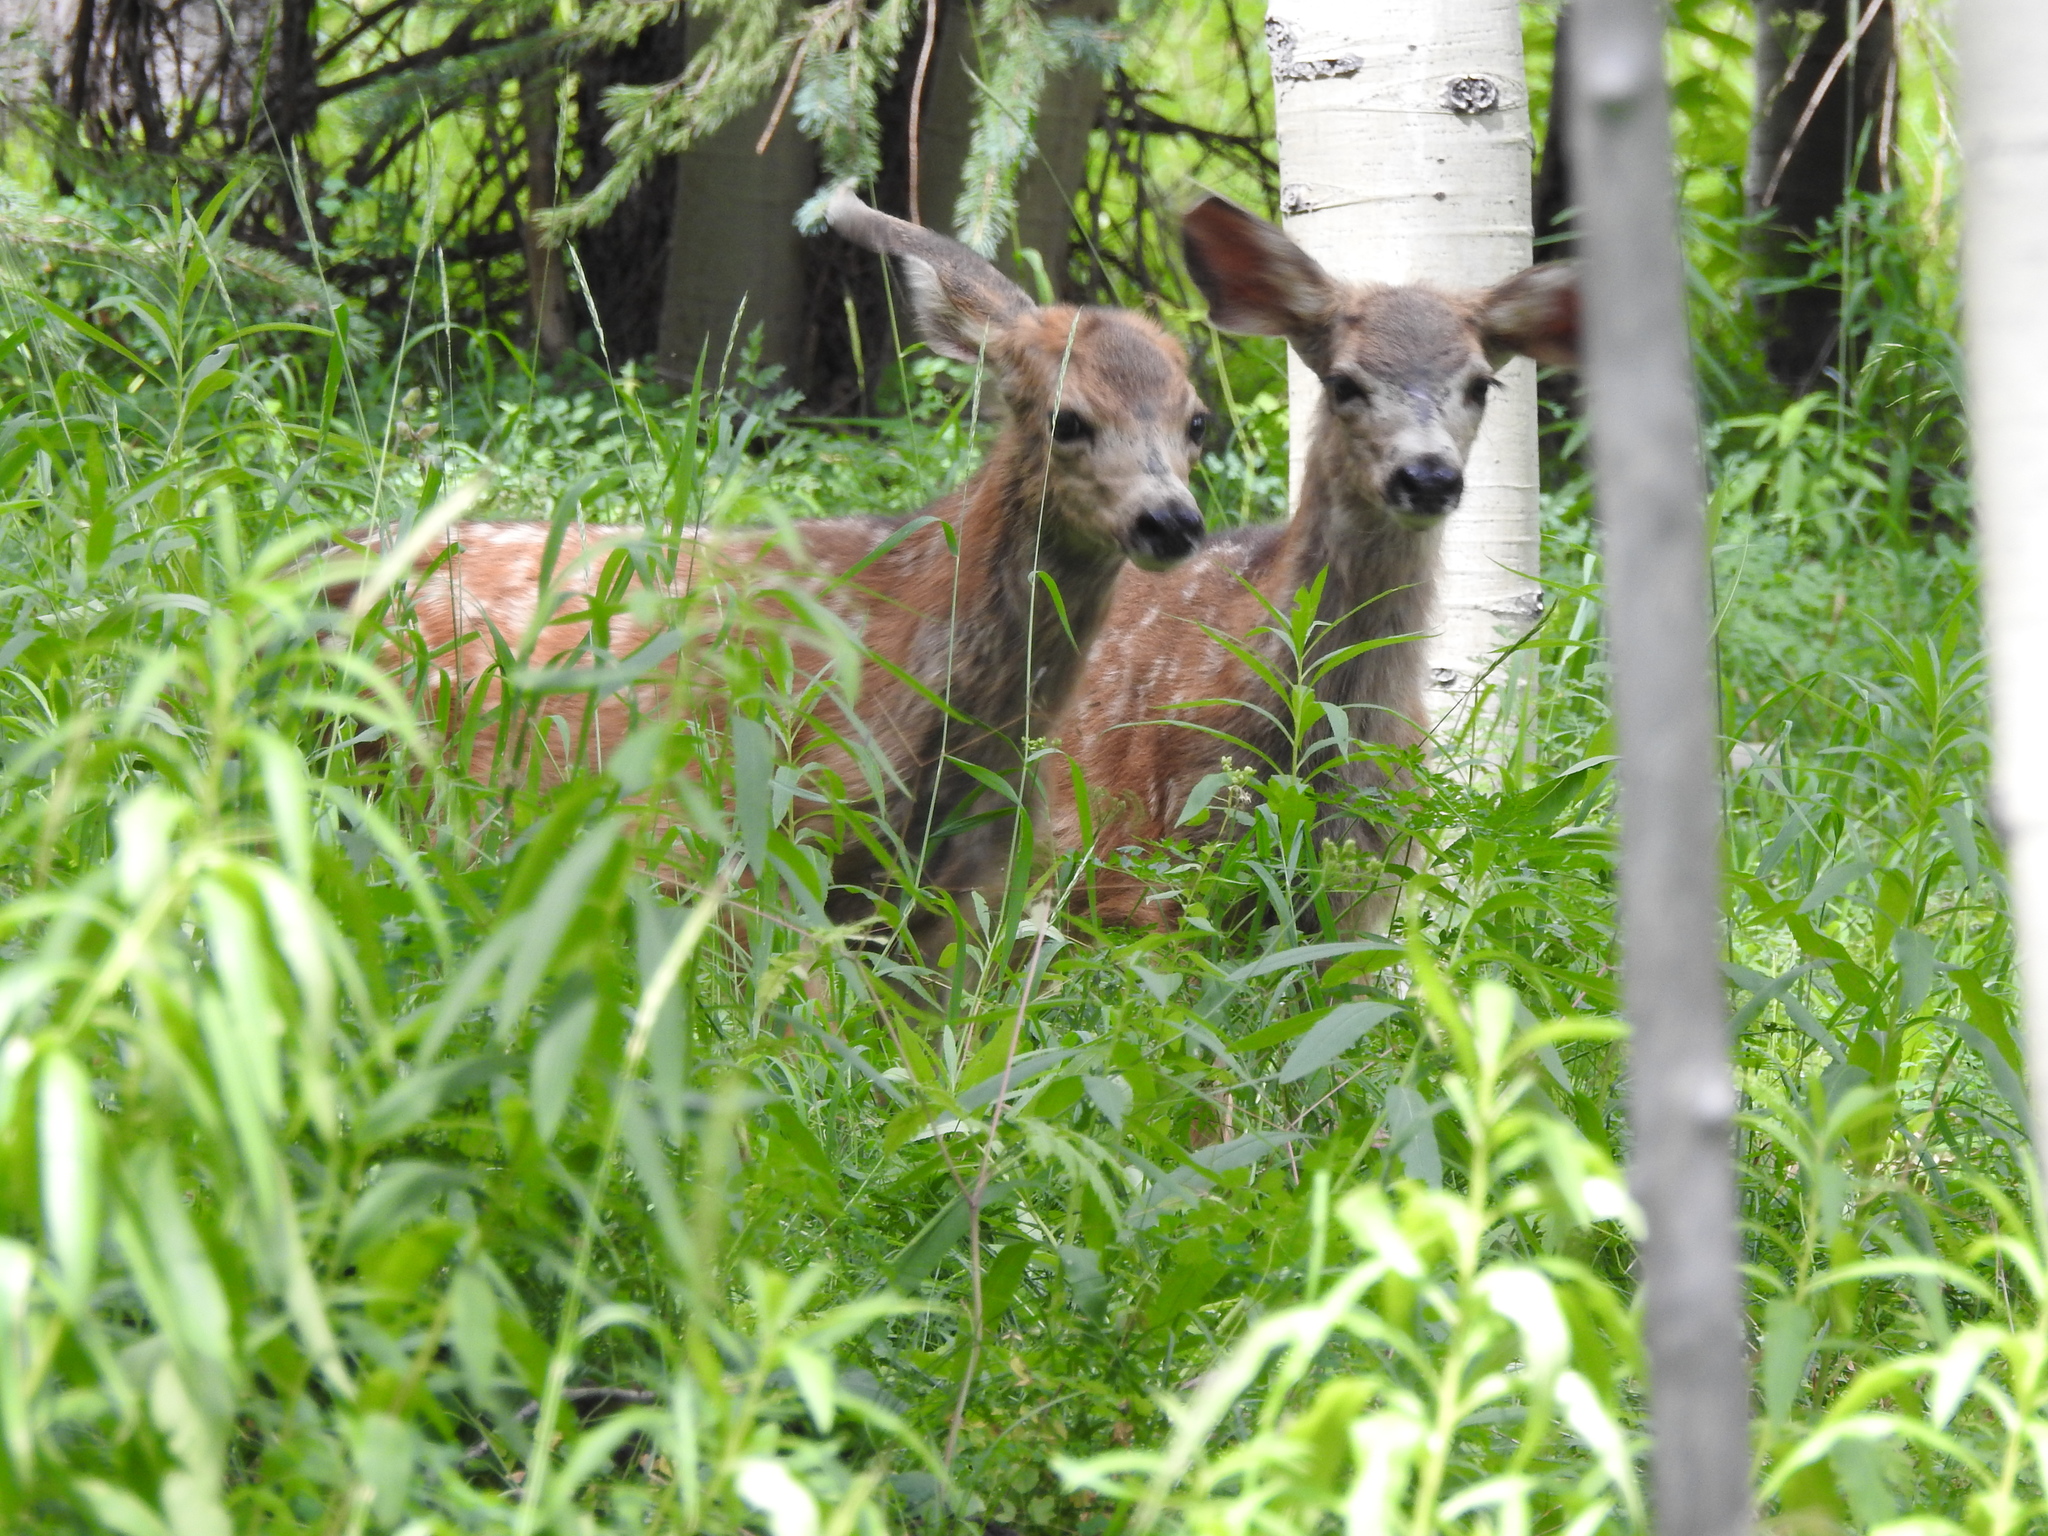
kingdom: Animalia
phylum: Chordata
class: Mammalia
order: Artiodactyla
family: Cervidae
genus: Odocoileus
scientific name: Odocoileus hemionus
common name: Mule deer
